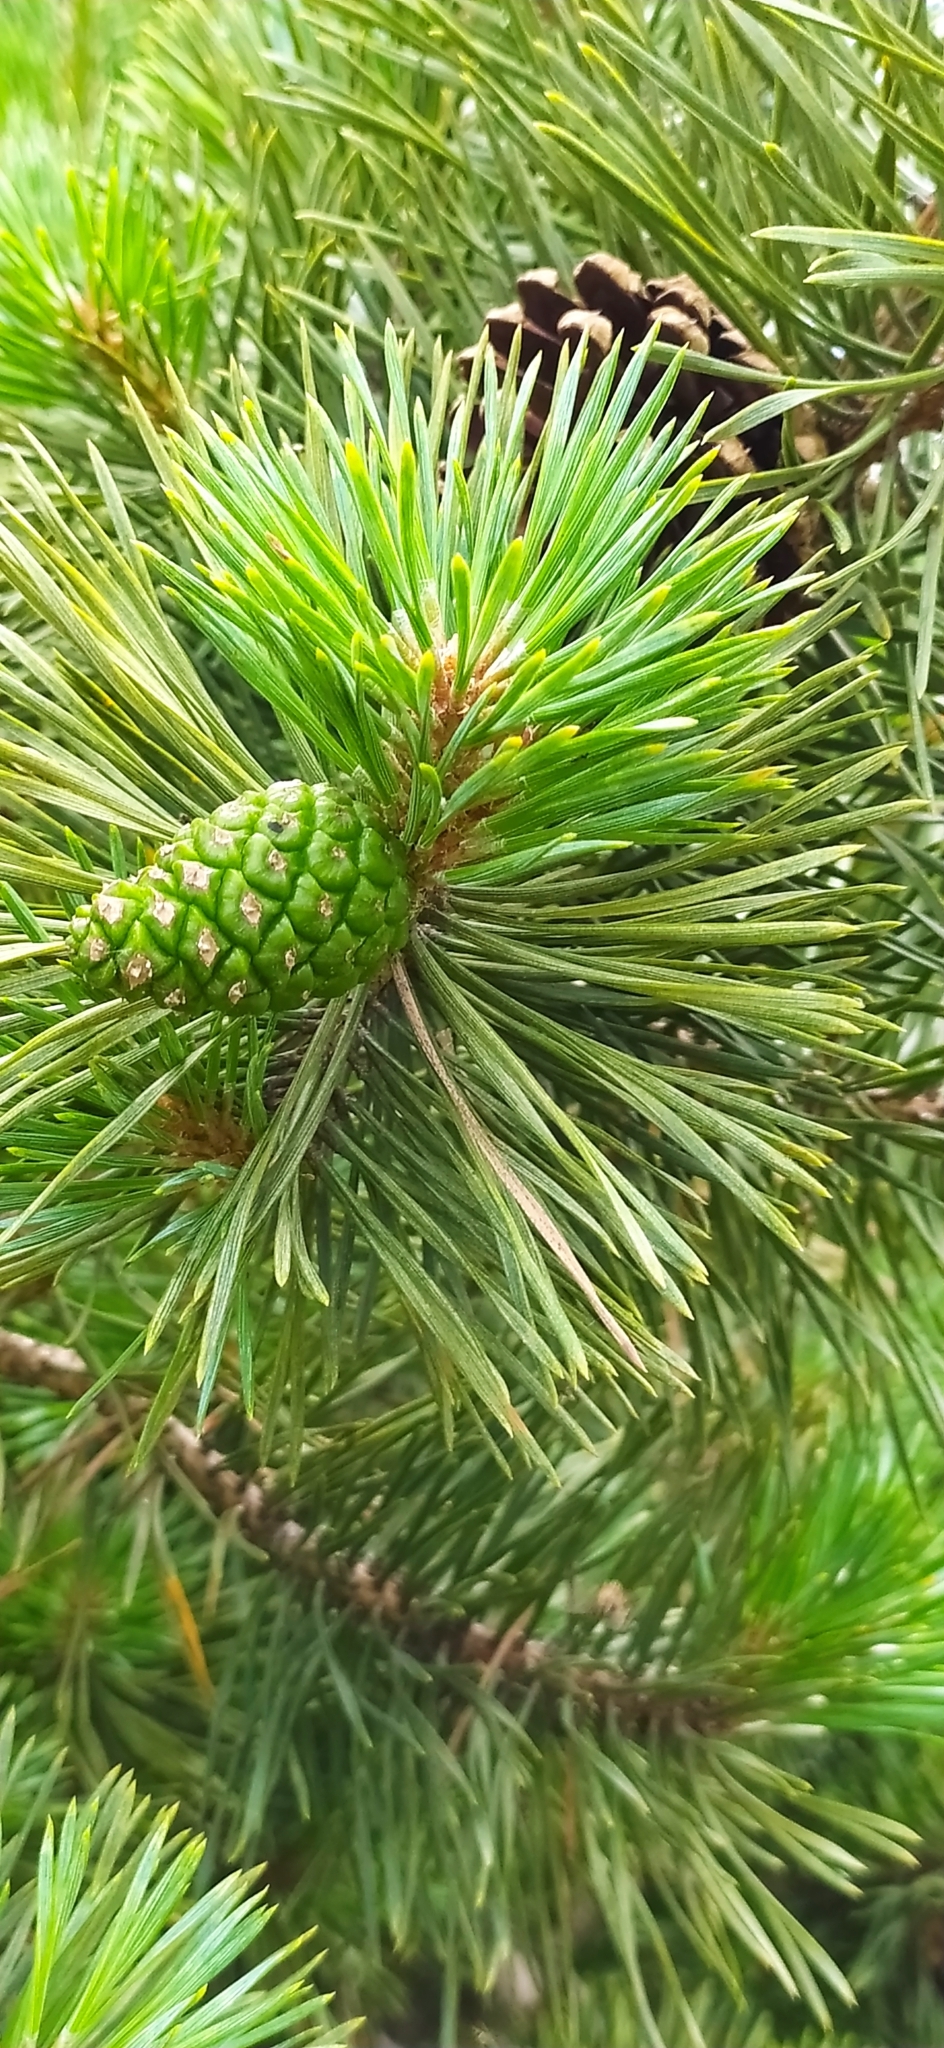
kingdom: Plantae
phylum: Tracheophyta
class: Pinopsida
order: Pinales
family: Pinaceae
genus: Pinus
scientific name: Pinus sylvestris
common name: Scots pine
